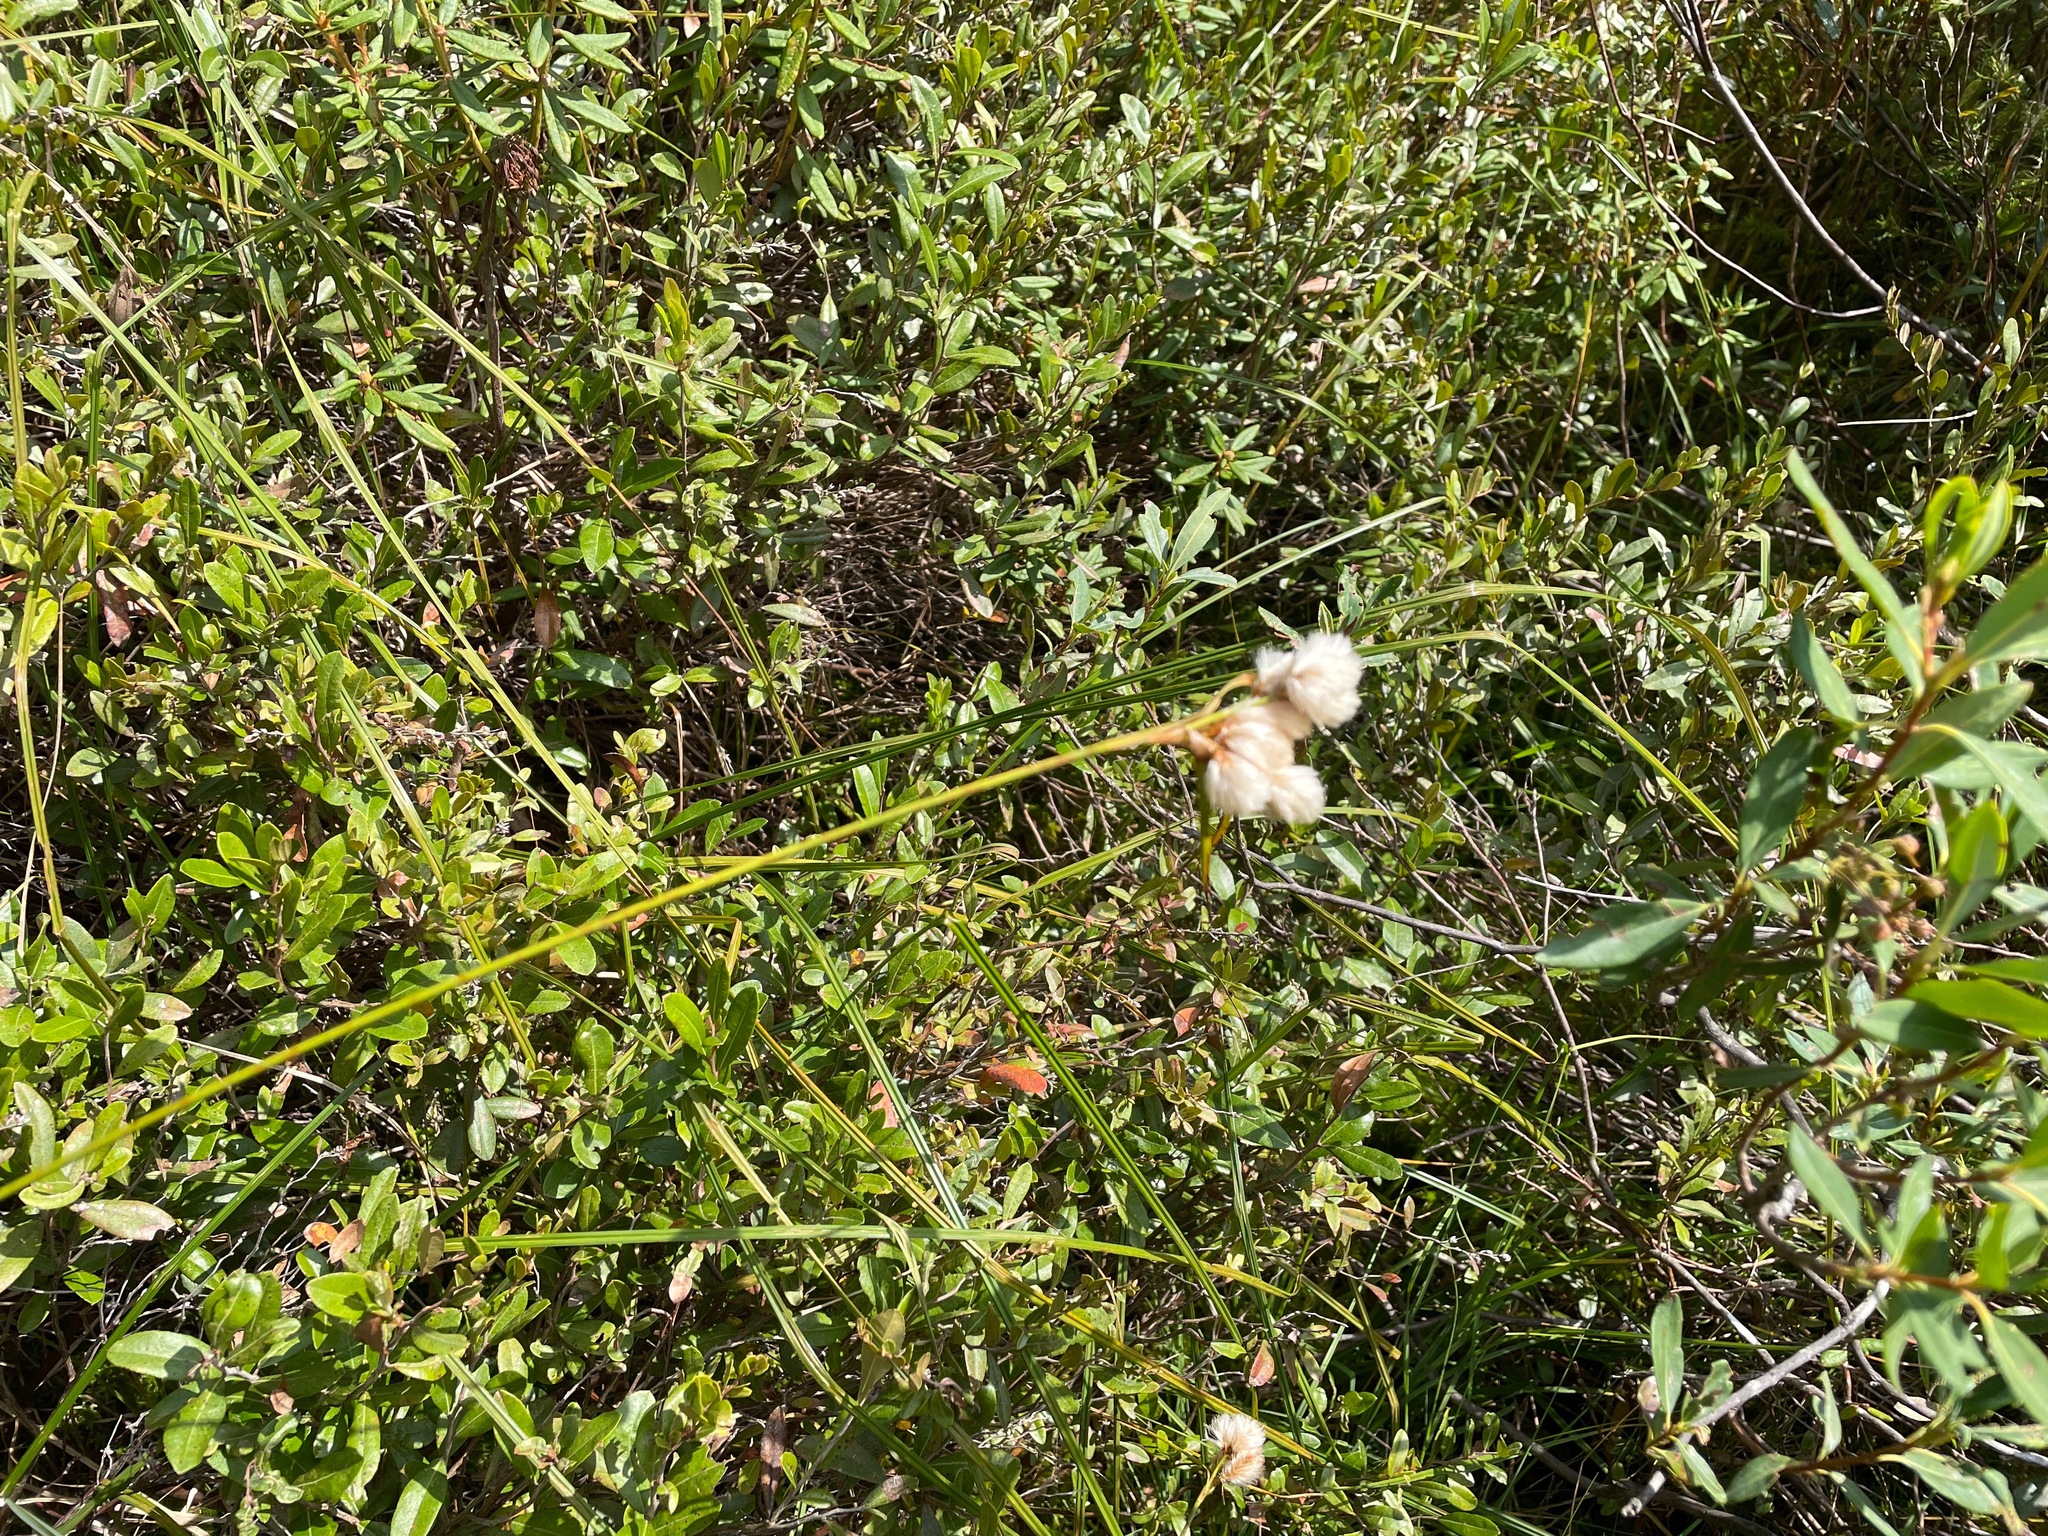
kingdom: Plantae
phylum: Tracheophyta
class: Liliopsida
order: Poales
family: Cyperaceae
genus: Eriophorum
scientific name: Eriophorum virginicum
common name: Tawny cottongrass
